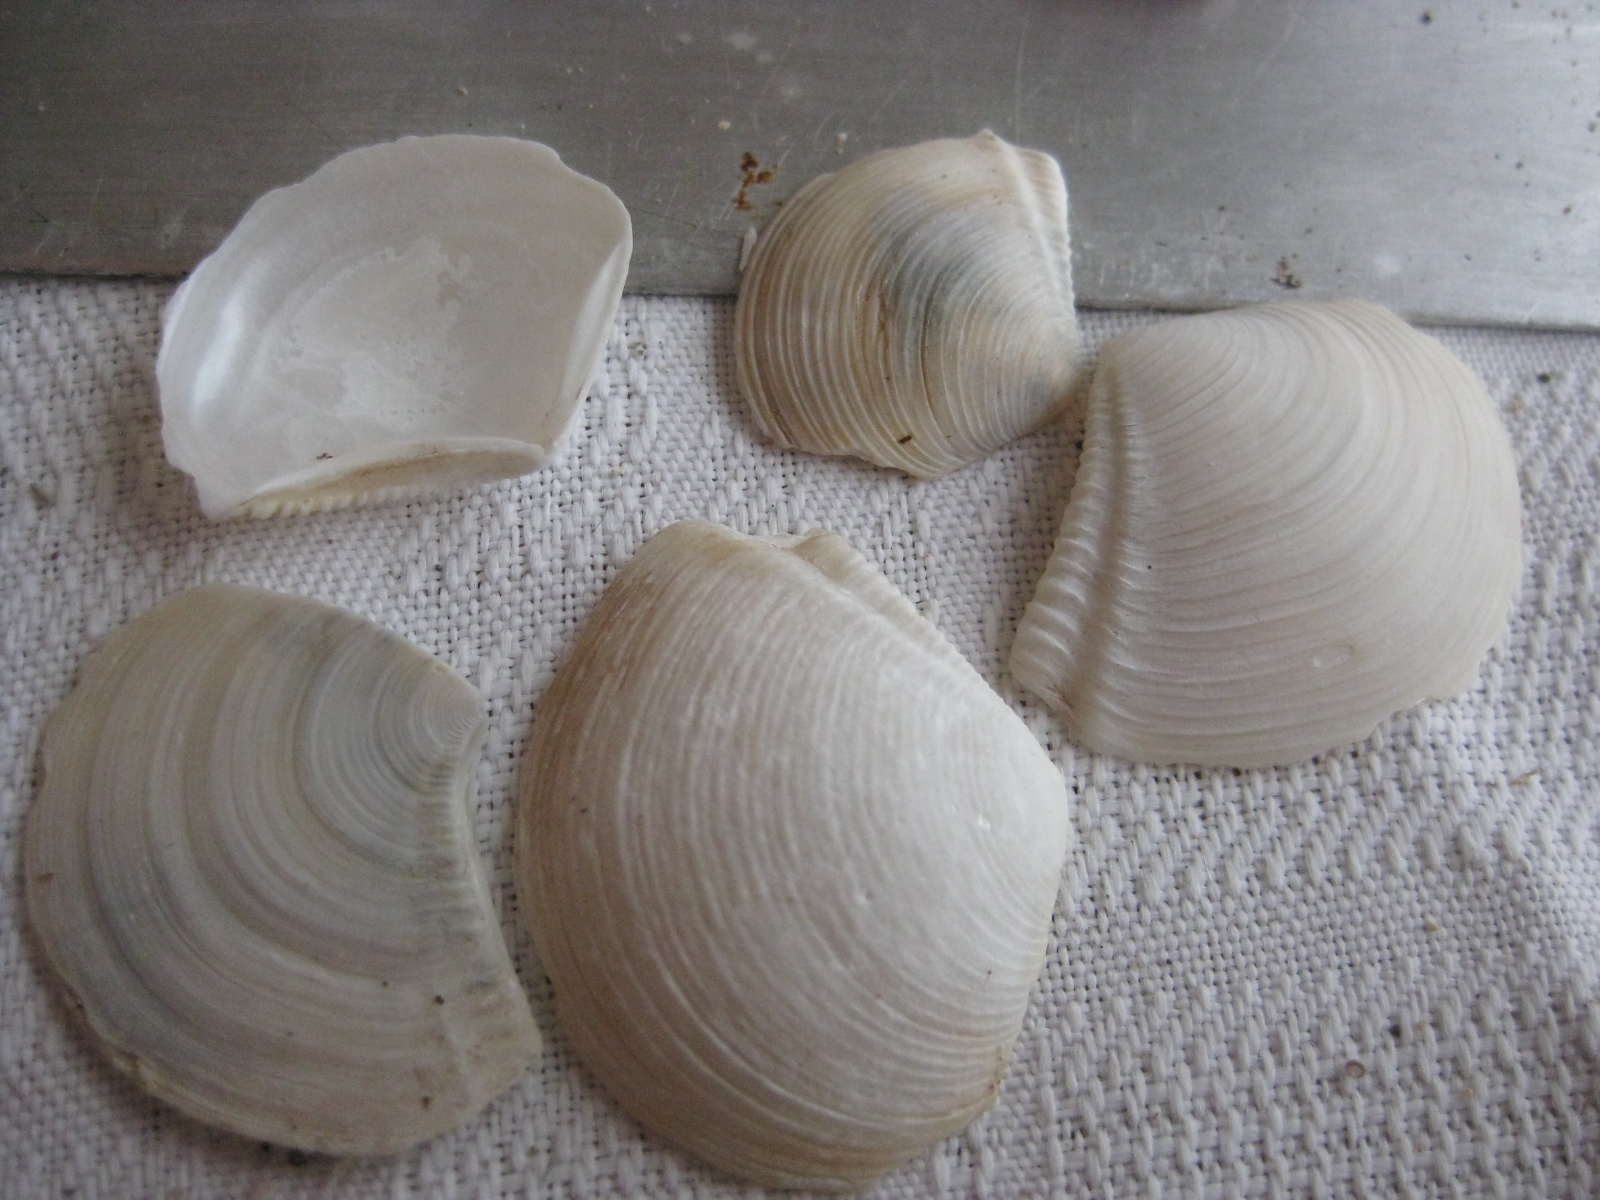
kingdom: Animalia
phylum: Mollusca
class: Bivalvia
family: Myochamidae
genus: Myadora
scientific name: Myadora striata
